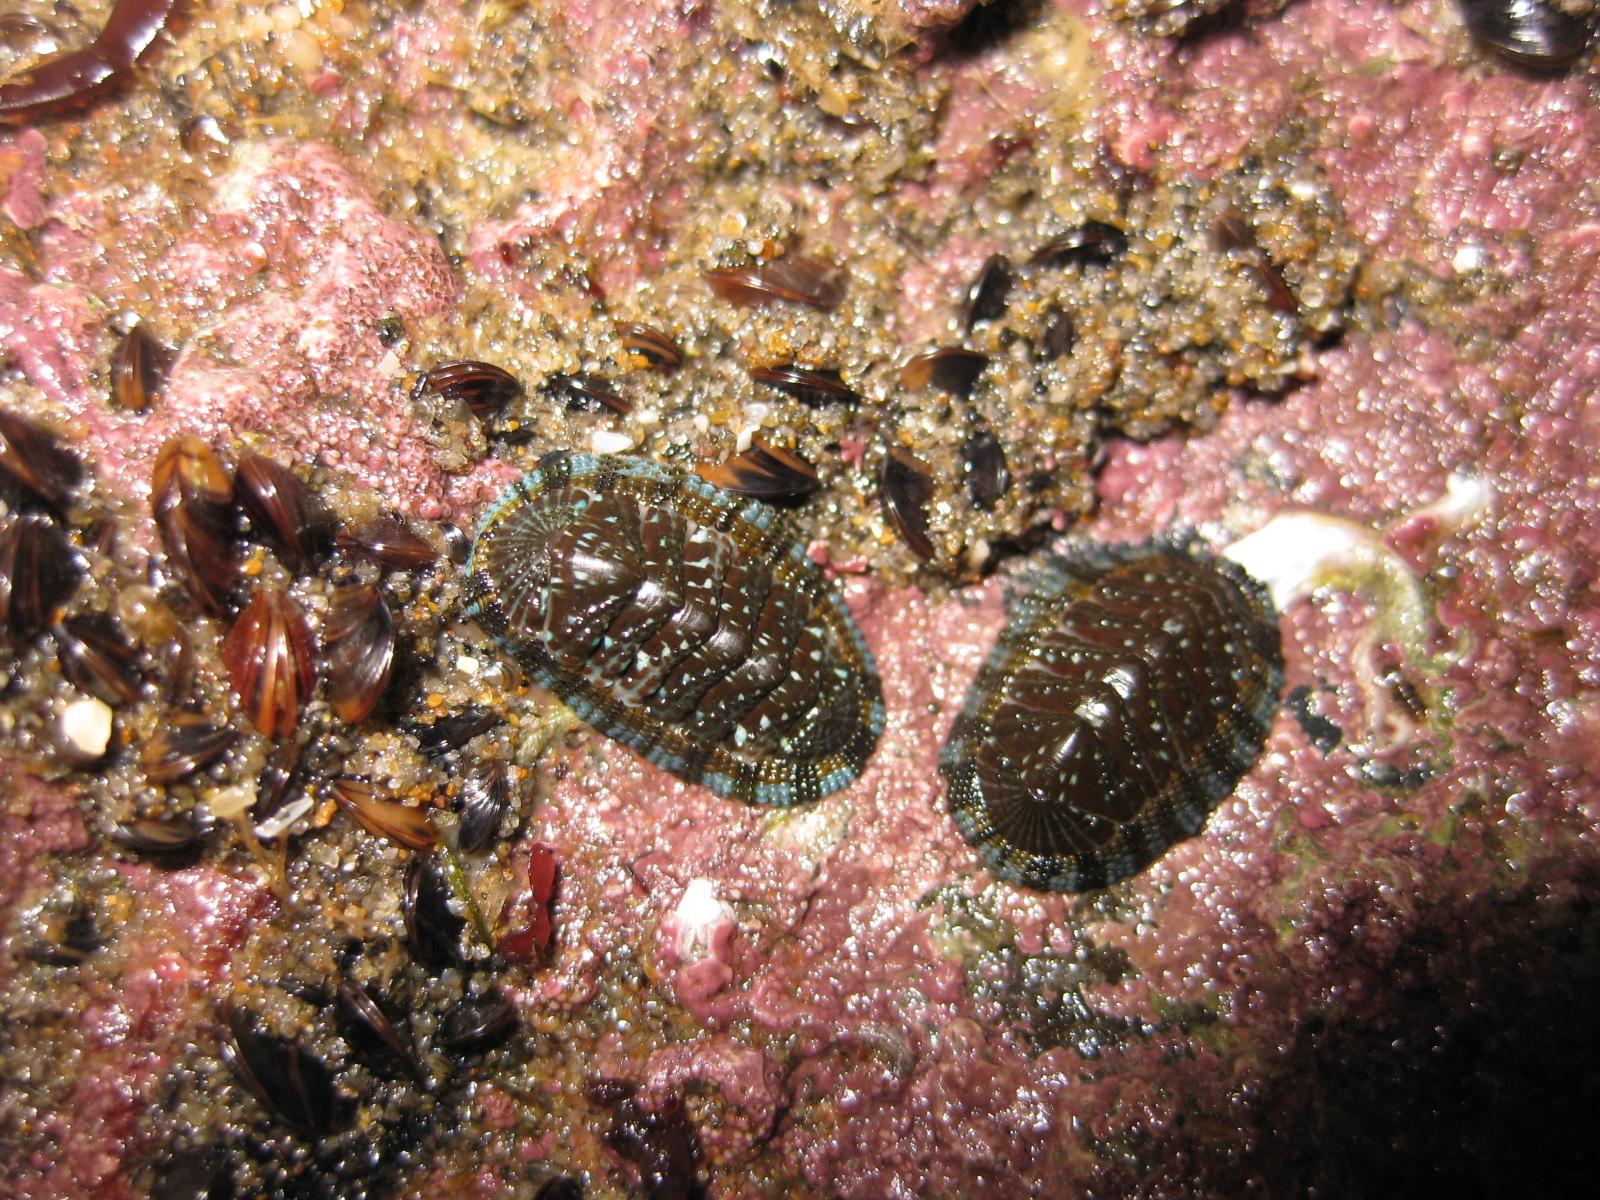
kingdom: Animalia
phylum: Mollusca
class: Polyplacophora
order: Chitonida
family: Chitonidae
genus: Sypharochiton
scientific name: Sypharochiton sinclairi
